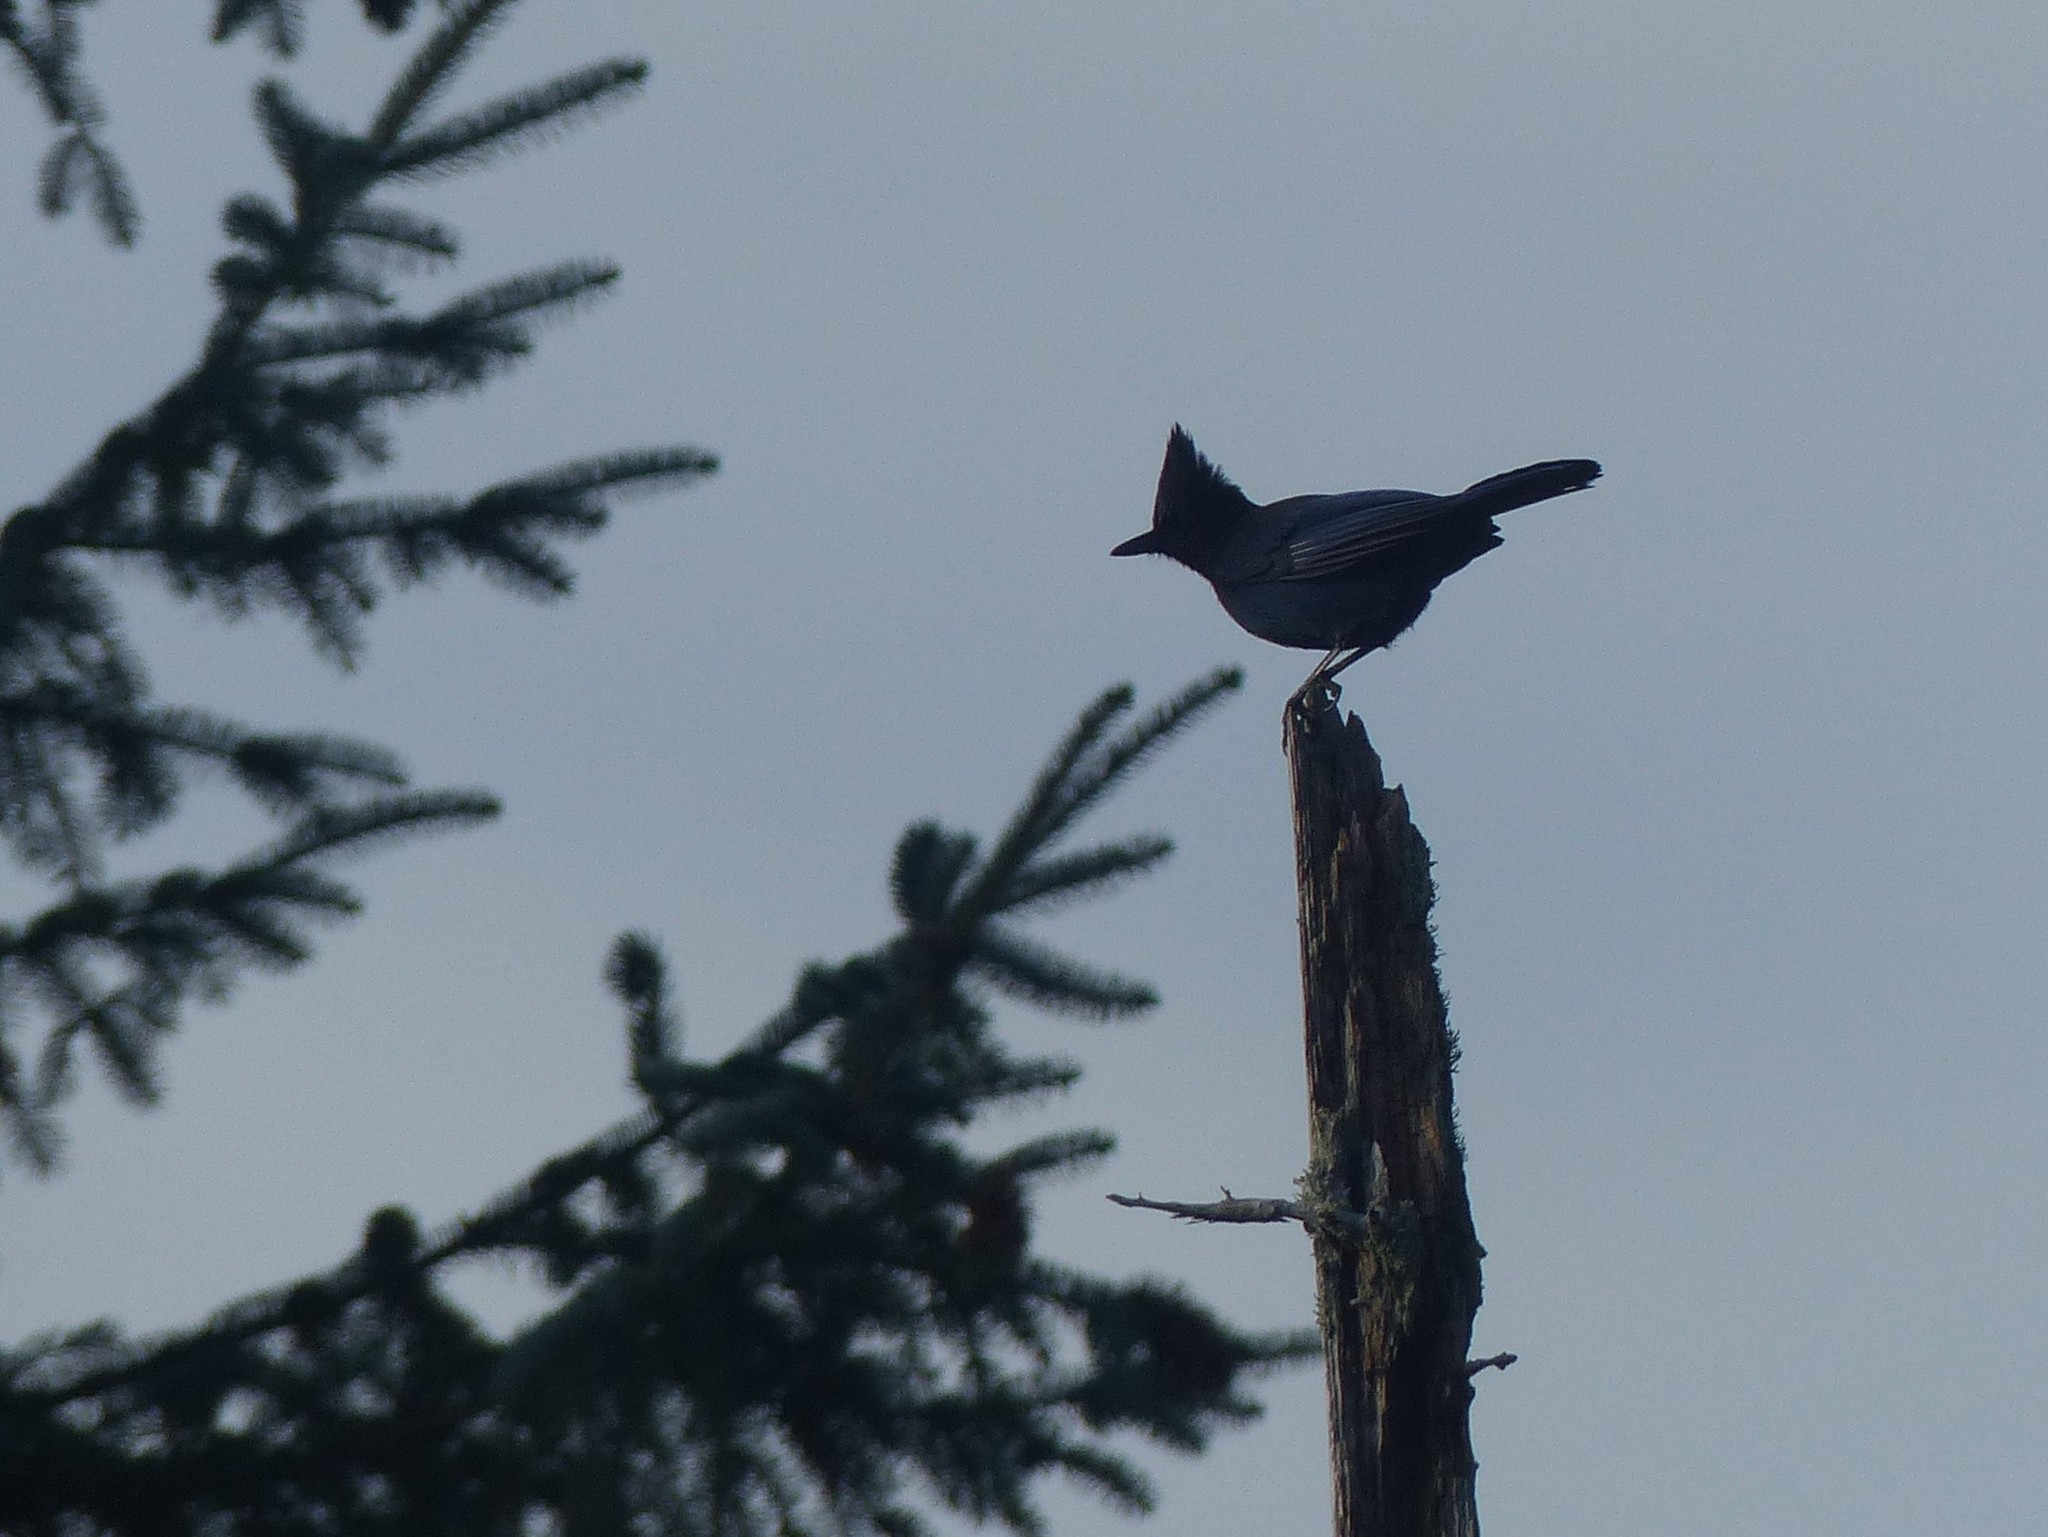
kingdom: Animalia
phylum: Chordata
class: Aves
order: Passeriformes
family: Corvidae
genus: Cyanocitta
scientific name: Cyanocitta stelleri
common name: Steller's jay
